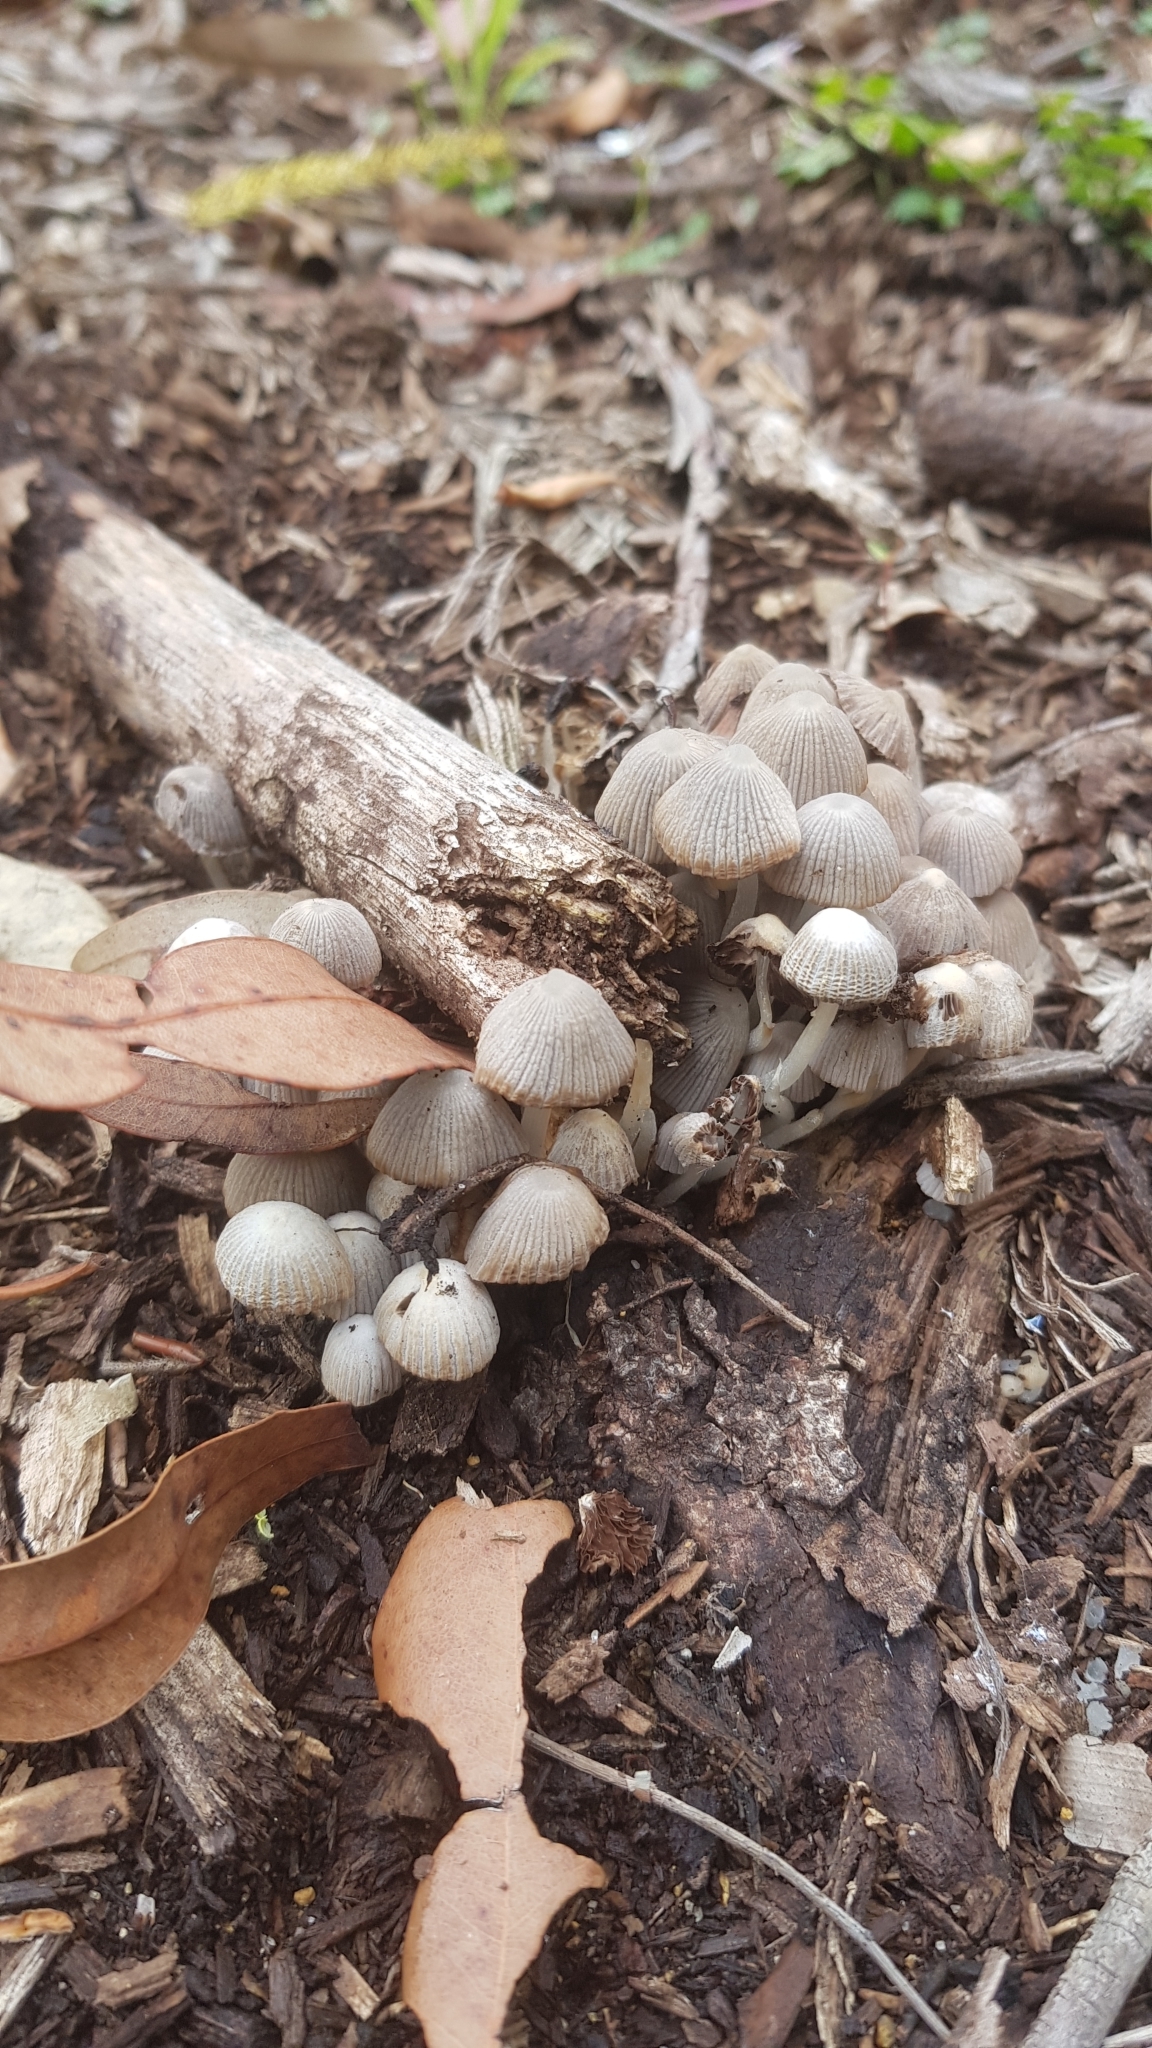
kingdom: Fungi
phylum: Basidiomycota
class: Agaricomycetes
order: Agaricales
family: Psathyrellaceae
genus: Coprinellus
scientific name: Coprinellus disseminatus
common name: Fairies' bonnets
